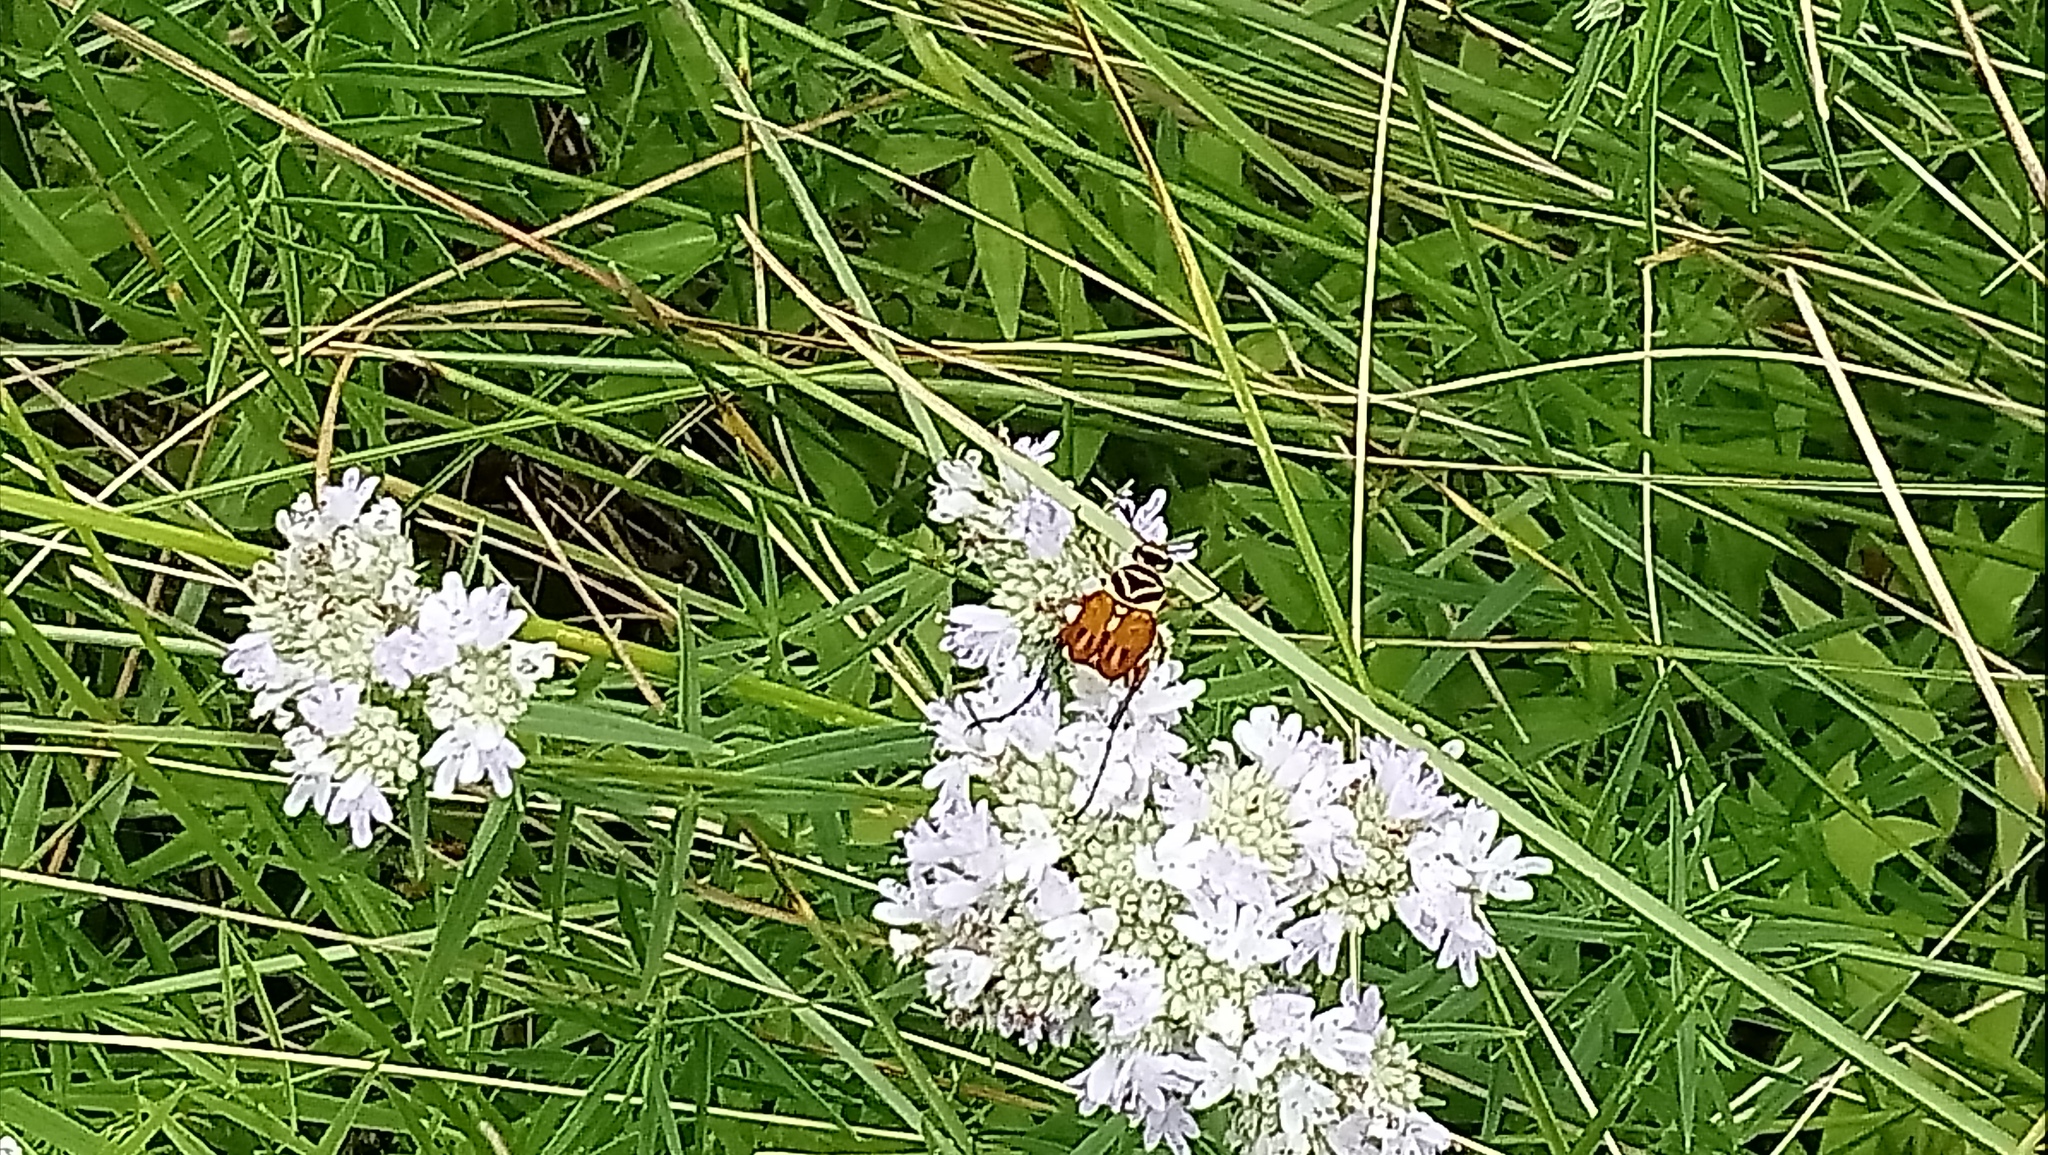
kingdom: Animalia
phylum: Arthropoda
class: Insecta
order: Coleoptera
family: Scarabaeidae
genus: Trigonopeltastes
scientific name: Trigonopeltastes delta
